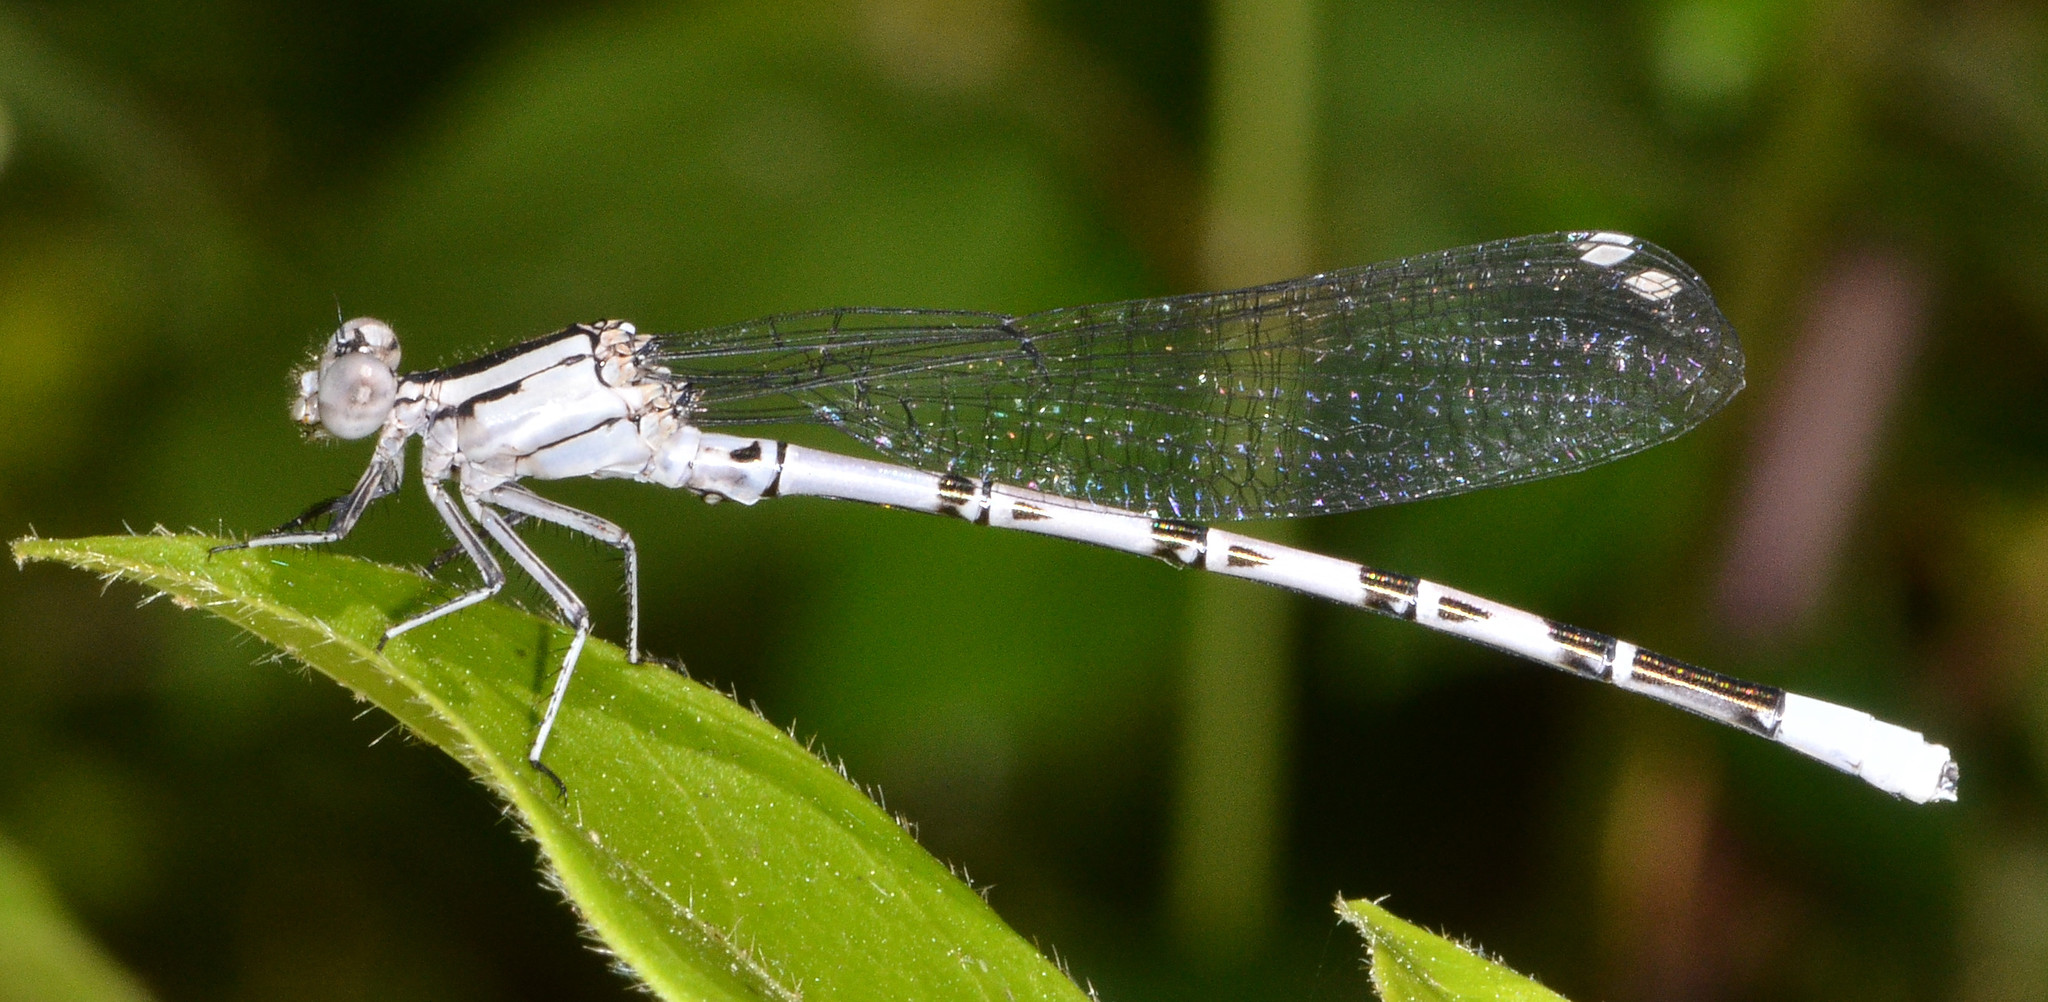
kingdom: Animalia
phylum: Arthropoda
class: Insecta
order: Odonata
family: Coenagrionidae
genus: Argia
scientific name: Argia vivida
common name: Vivid dancer
